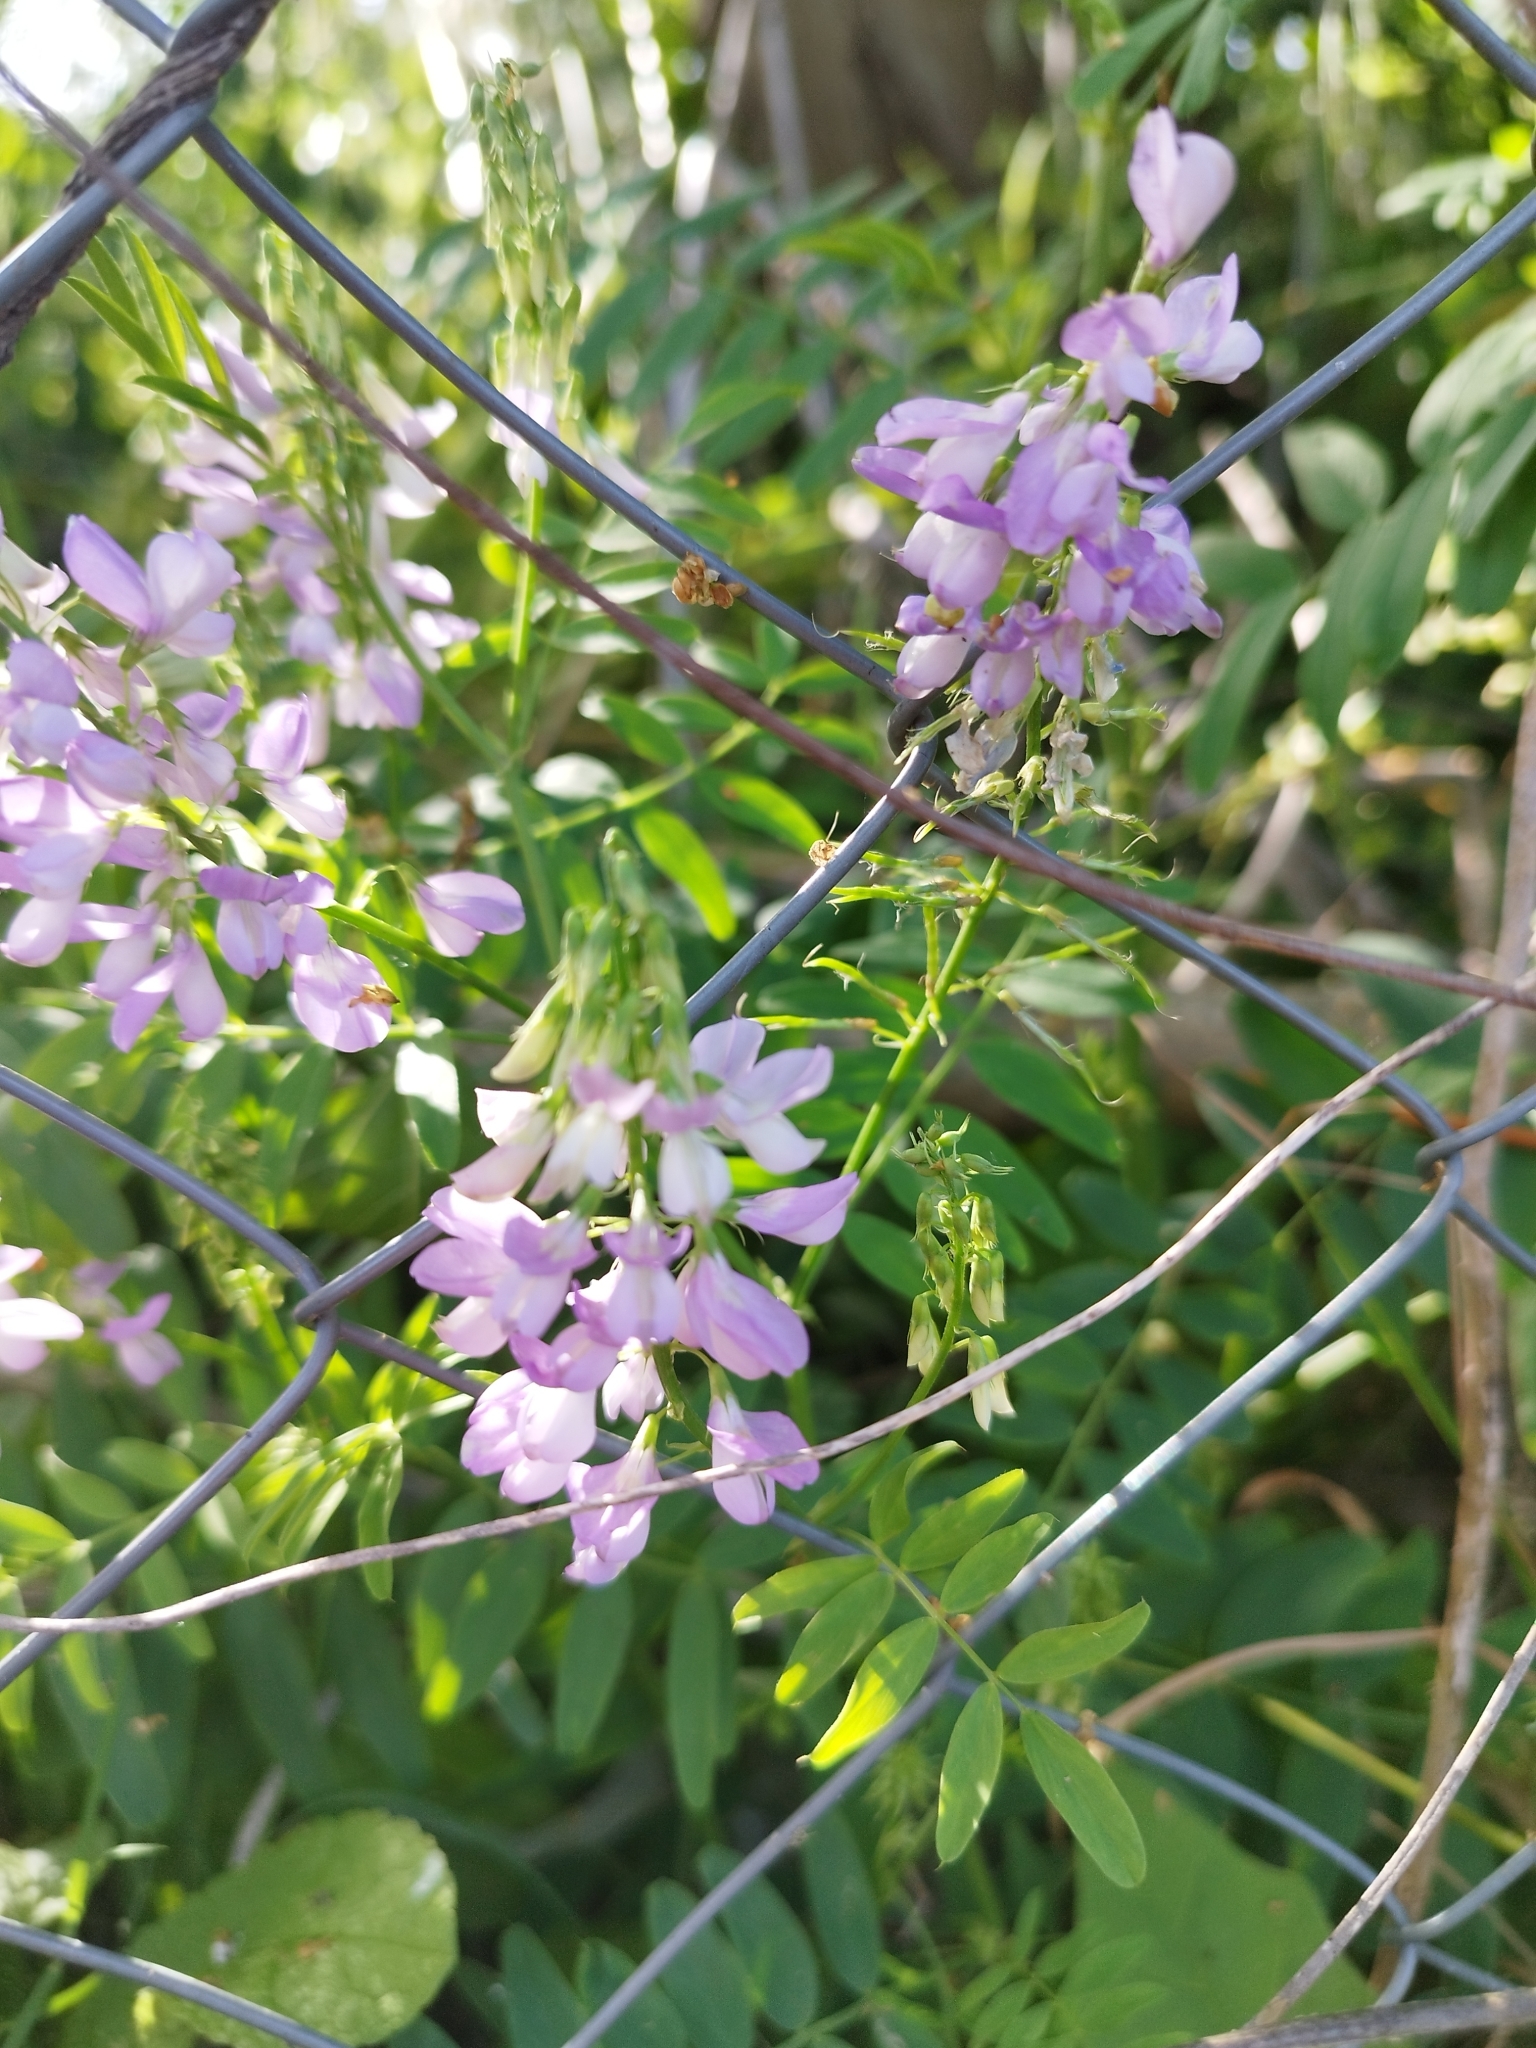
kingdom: Plantae
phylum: Tracheophyta
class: Magnoliopsida
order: Fabales
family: Fabaceae
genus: Galega
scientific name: Galega officinalis
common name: Goat's-rue
